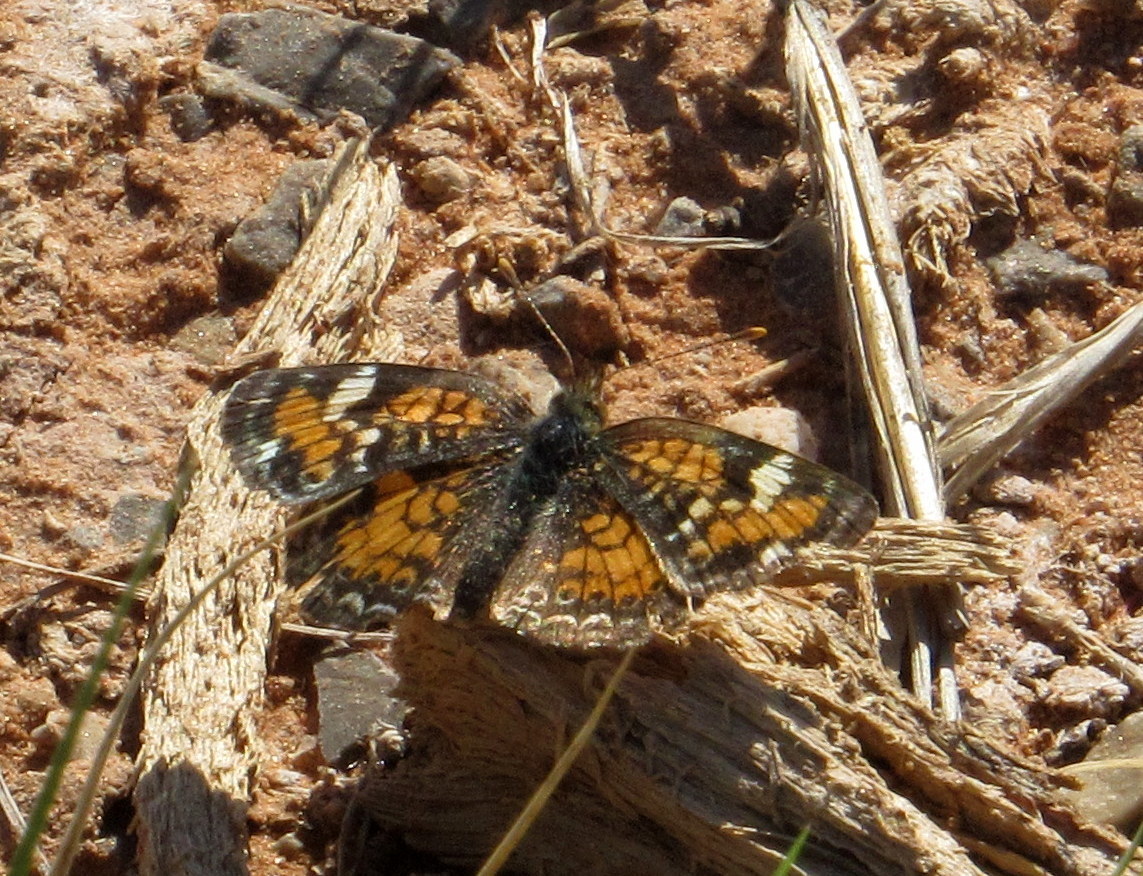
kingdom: Animalia
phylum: Arthropoda
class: Insecta
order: Lepidoptera
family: Nymphalidae
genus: Phyciodes
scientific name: Phyciodes phaon
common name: Phaon crescent
